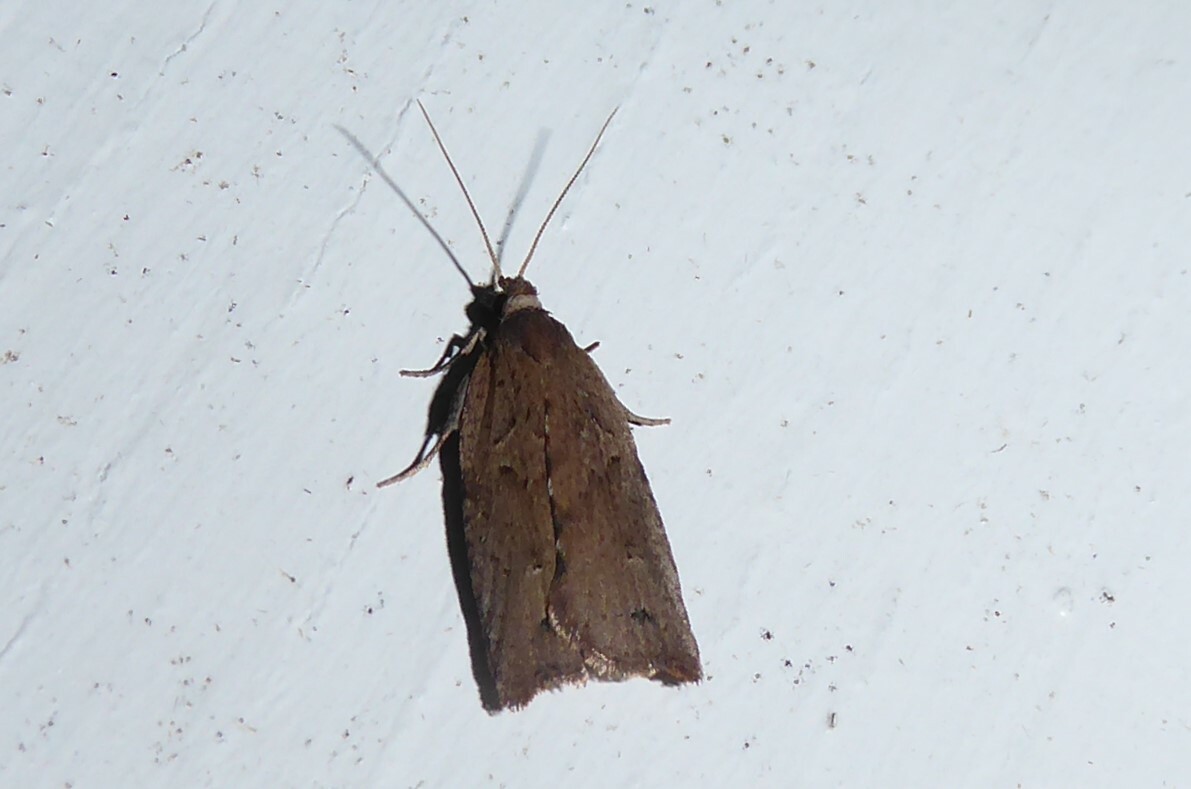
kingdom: Animalia
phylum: Arthropoda
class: Insecta
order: Lepidoptera
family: Tortricidae
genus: Planotortrix
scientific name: Planotortrix notophaea
